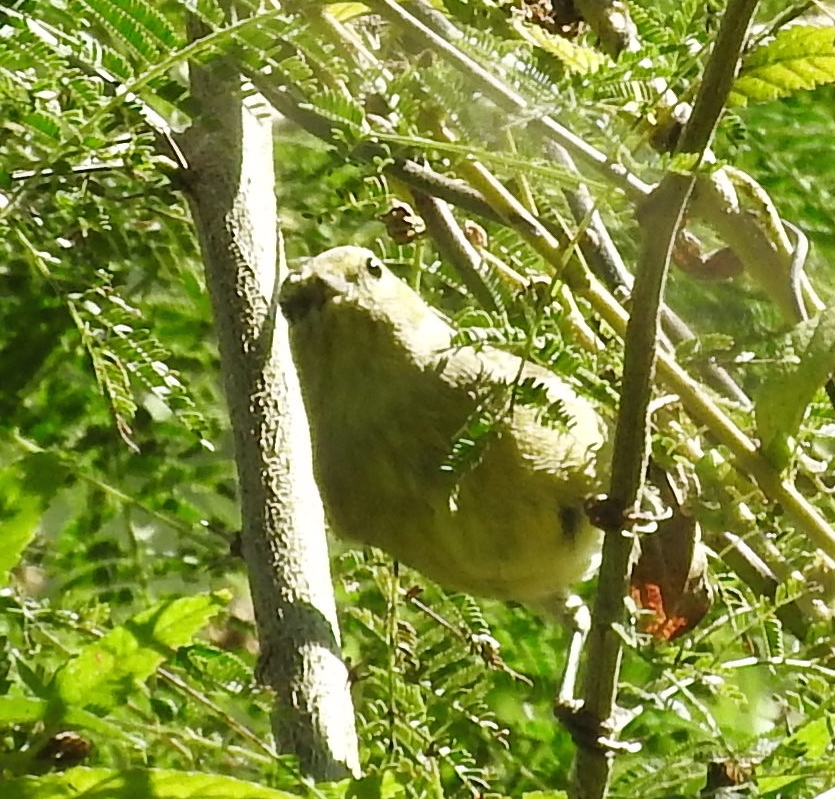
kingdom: Animalia
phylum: Chordata
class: Aves
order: Passeriformes
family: Parulidae
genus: Leiothlypis
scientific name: Leiothlypis celata
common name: Orange-crowned warbler
